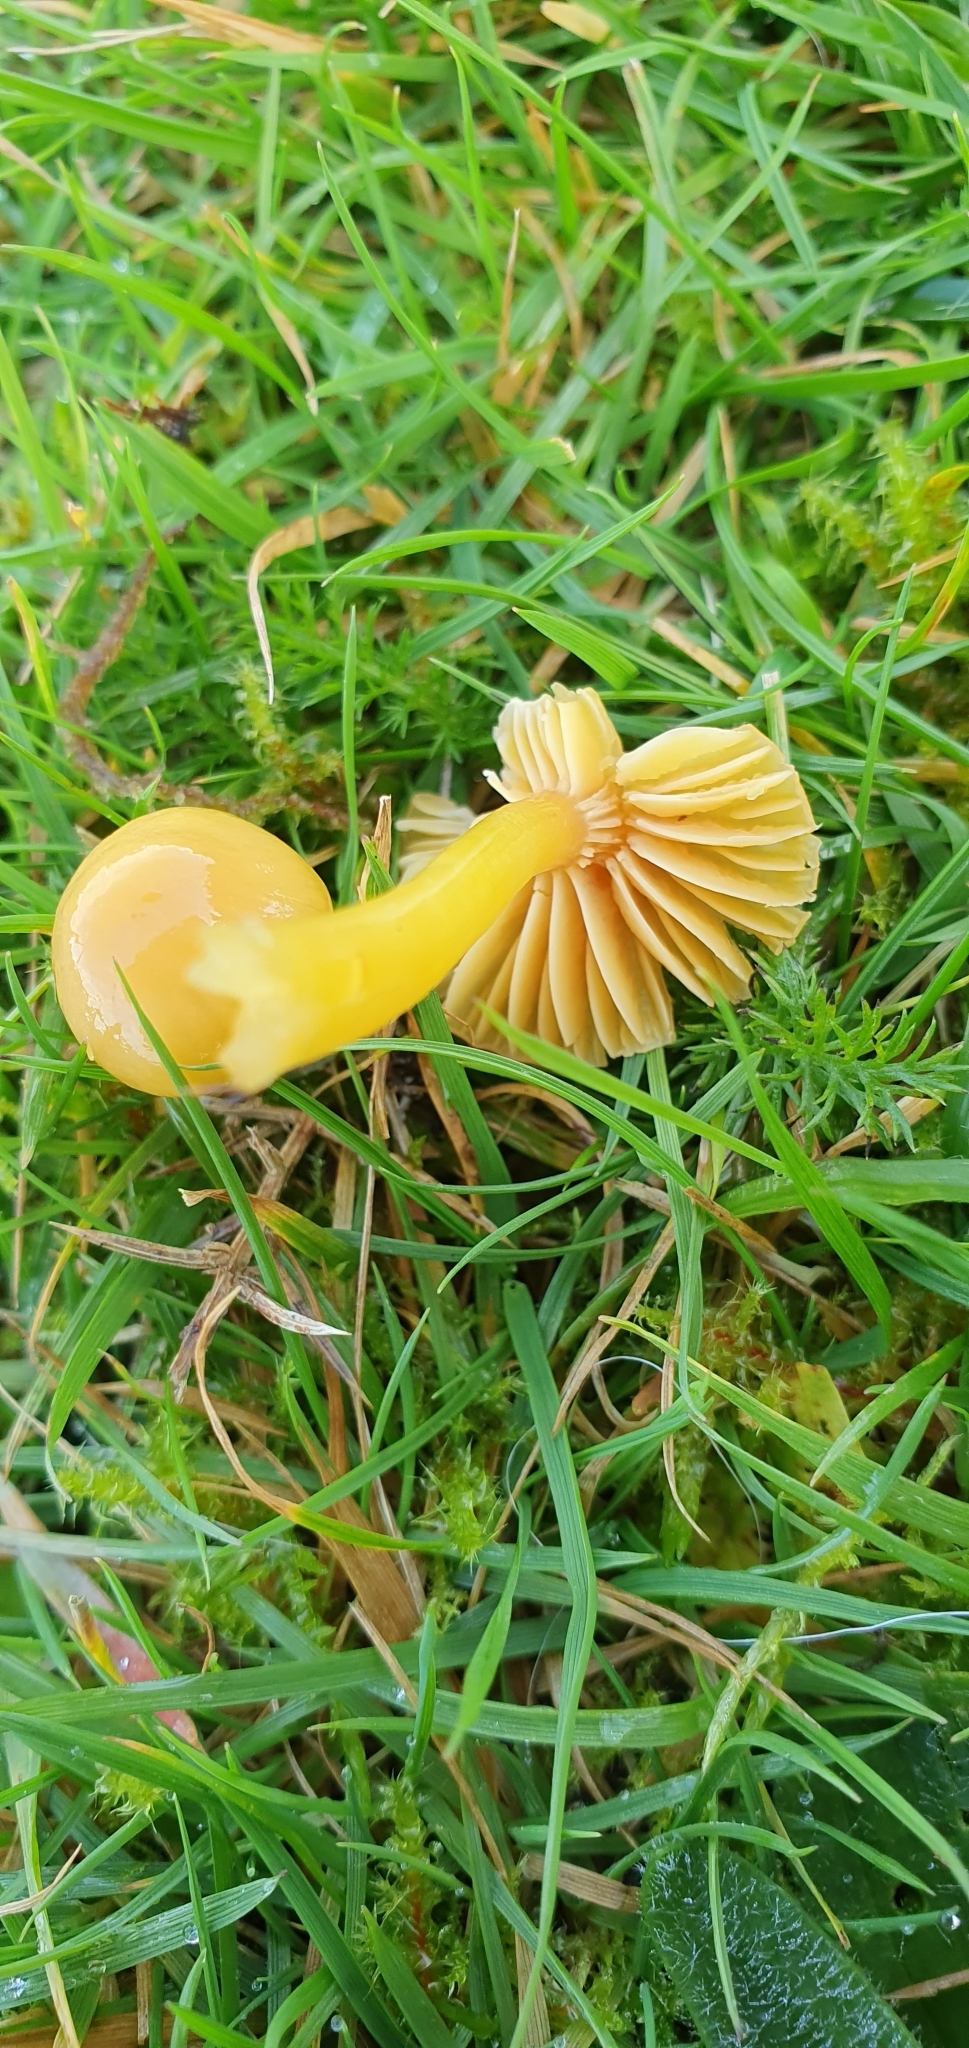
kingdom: Fungi
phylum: Basidiomycota
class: Agaricomycetes
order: Agaricales
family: Hygrophoraceae
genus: Gliophorus
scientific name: Gliophorus psittacinus
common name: Parrot wax-cap
